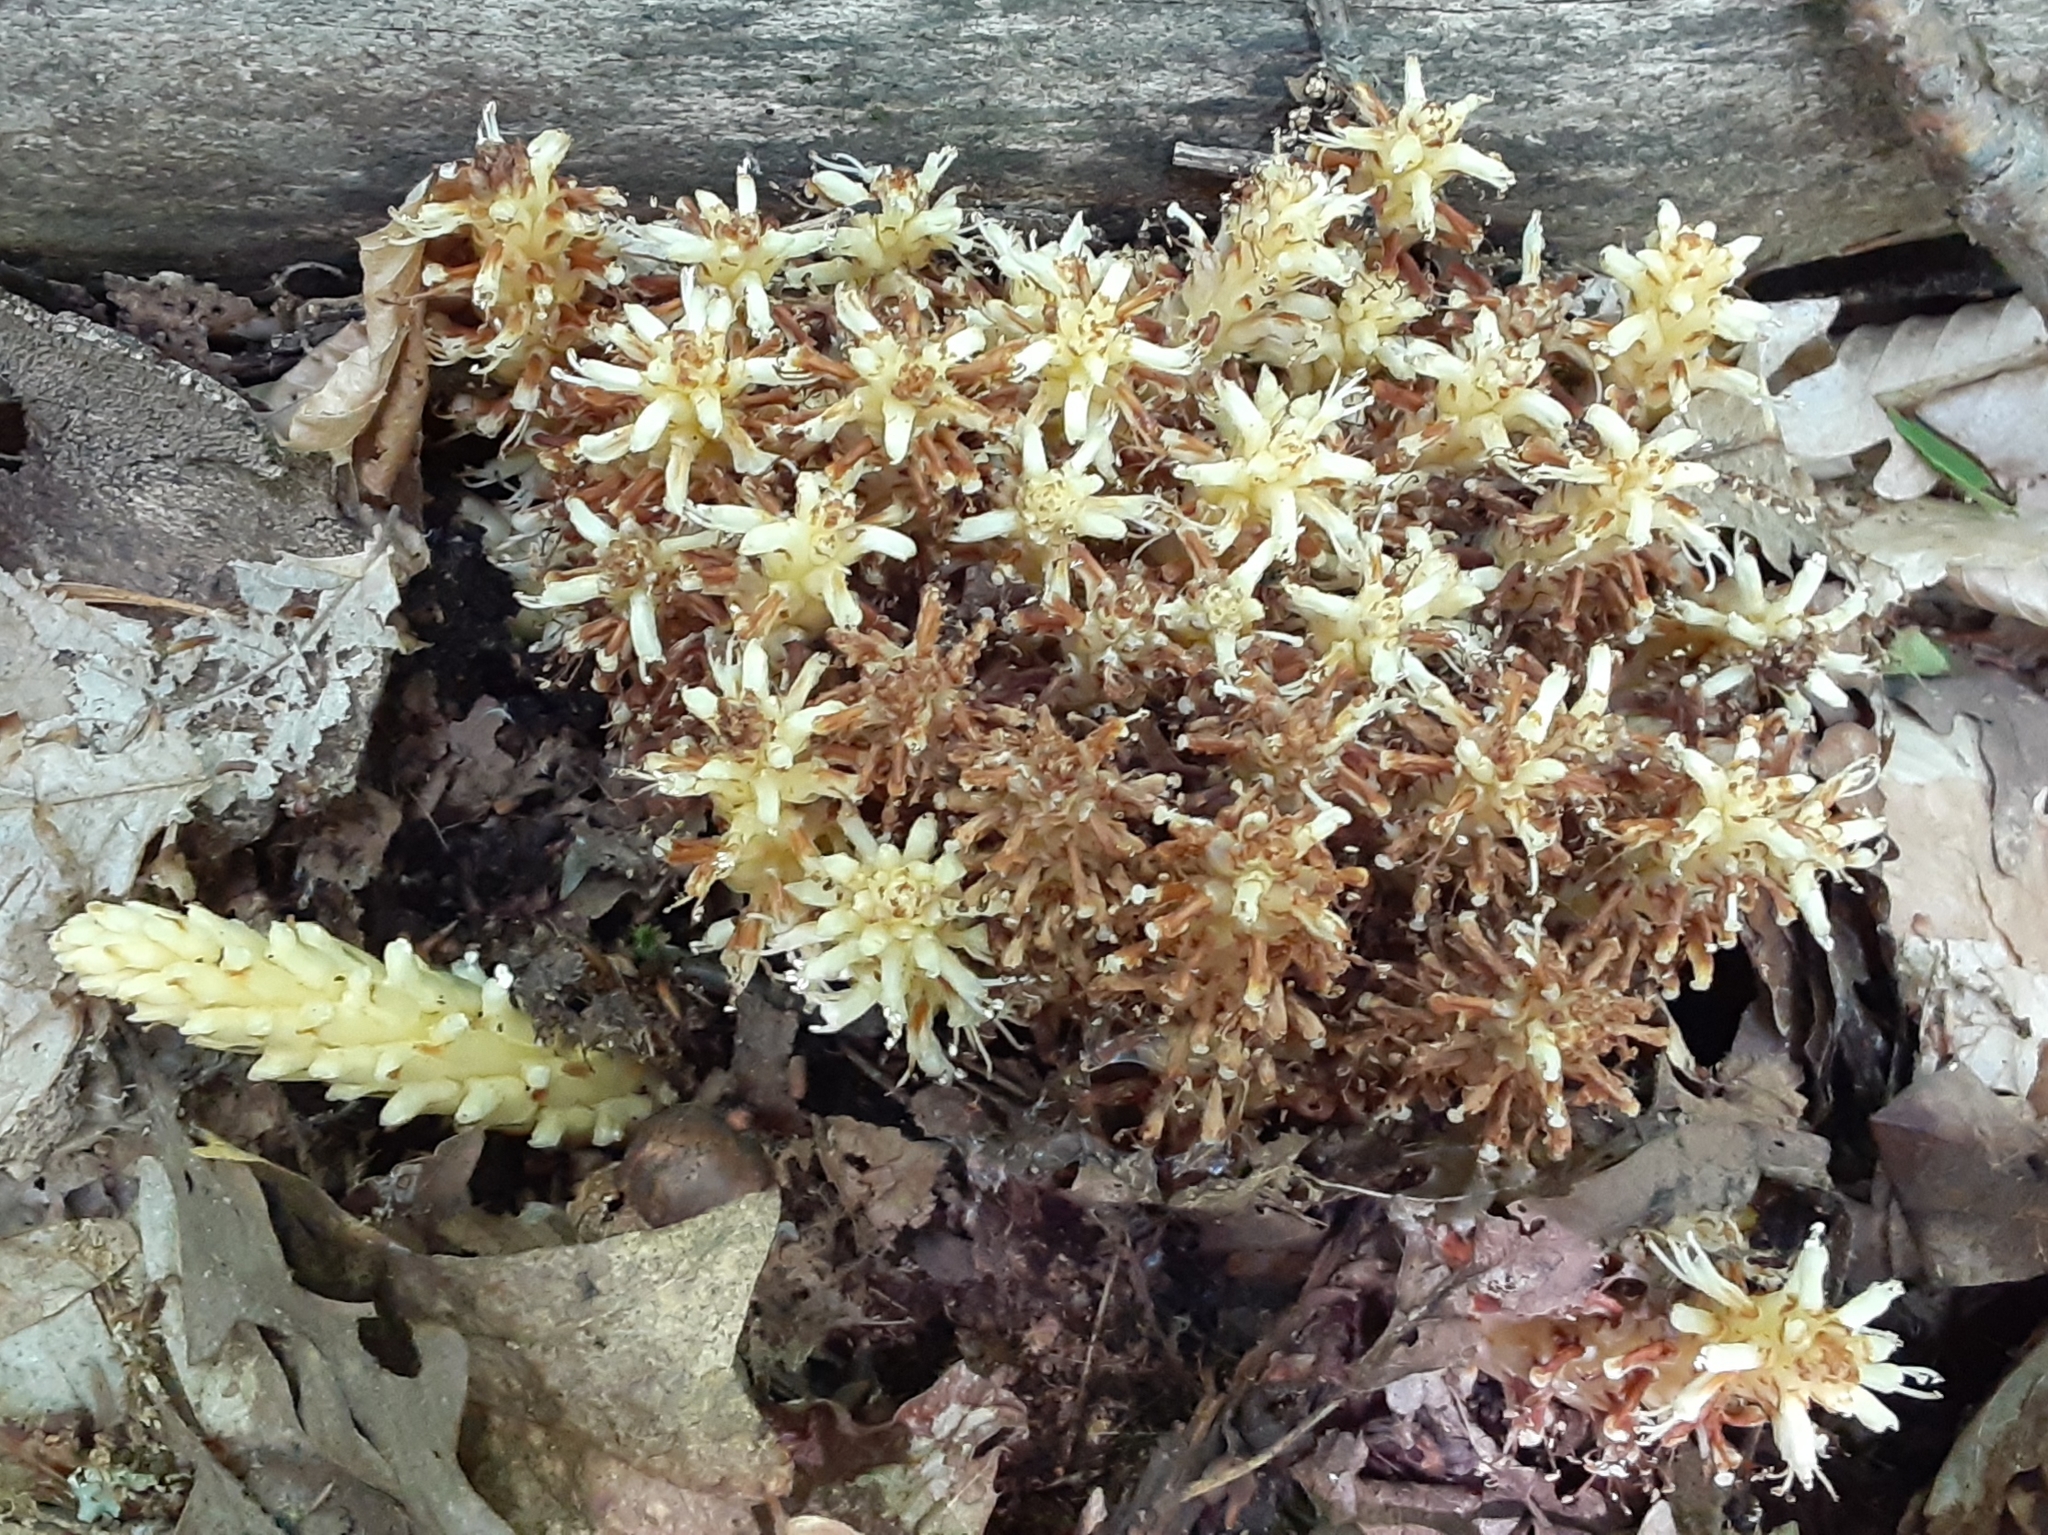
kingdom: Plantae
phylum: Tracheophyta
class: Magnoliopsida
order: Lamiales
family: Orobanchaceae
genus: Conopholis
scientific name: Conopholis americana
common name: American cancer-root
